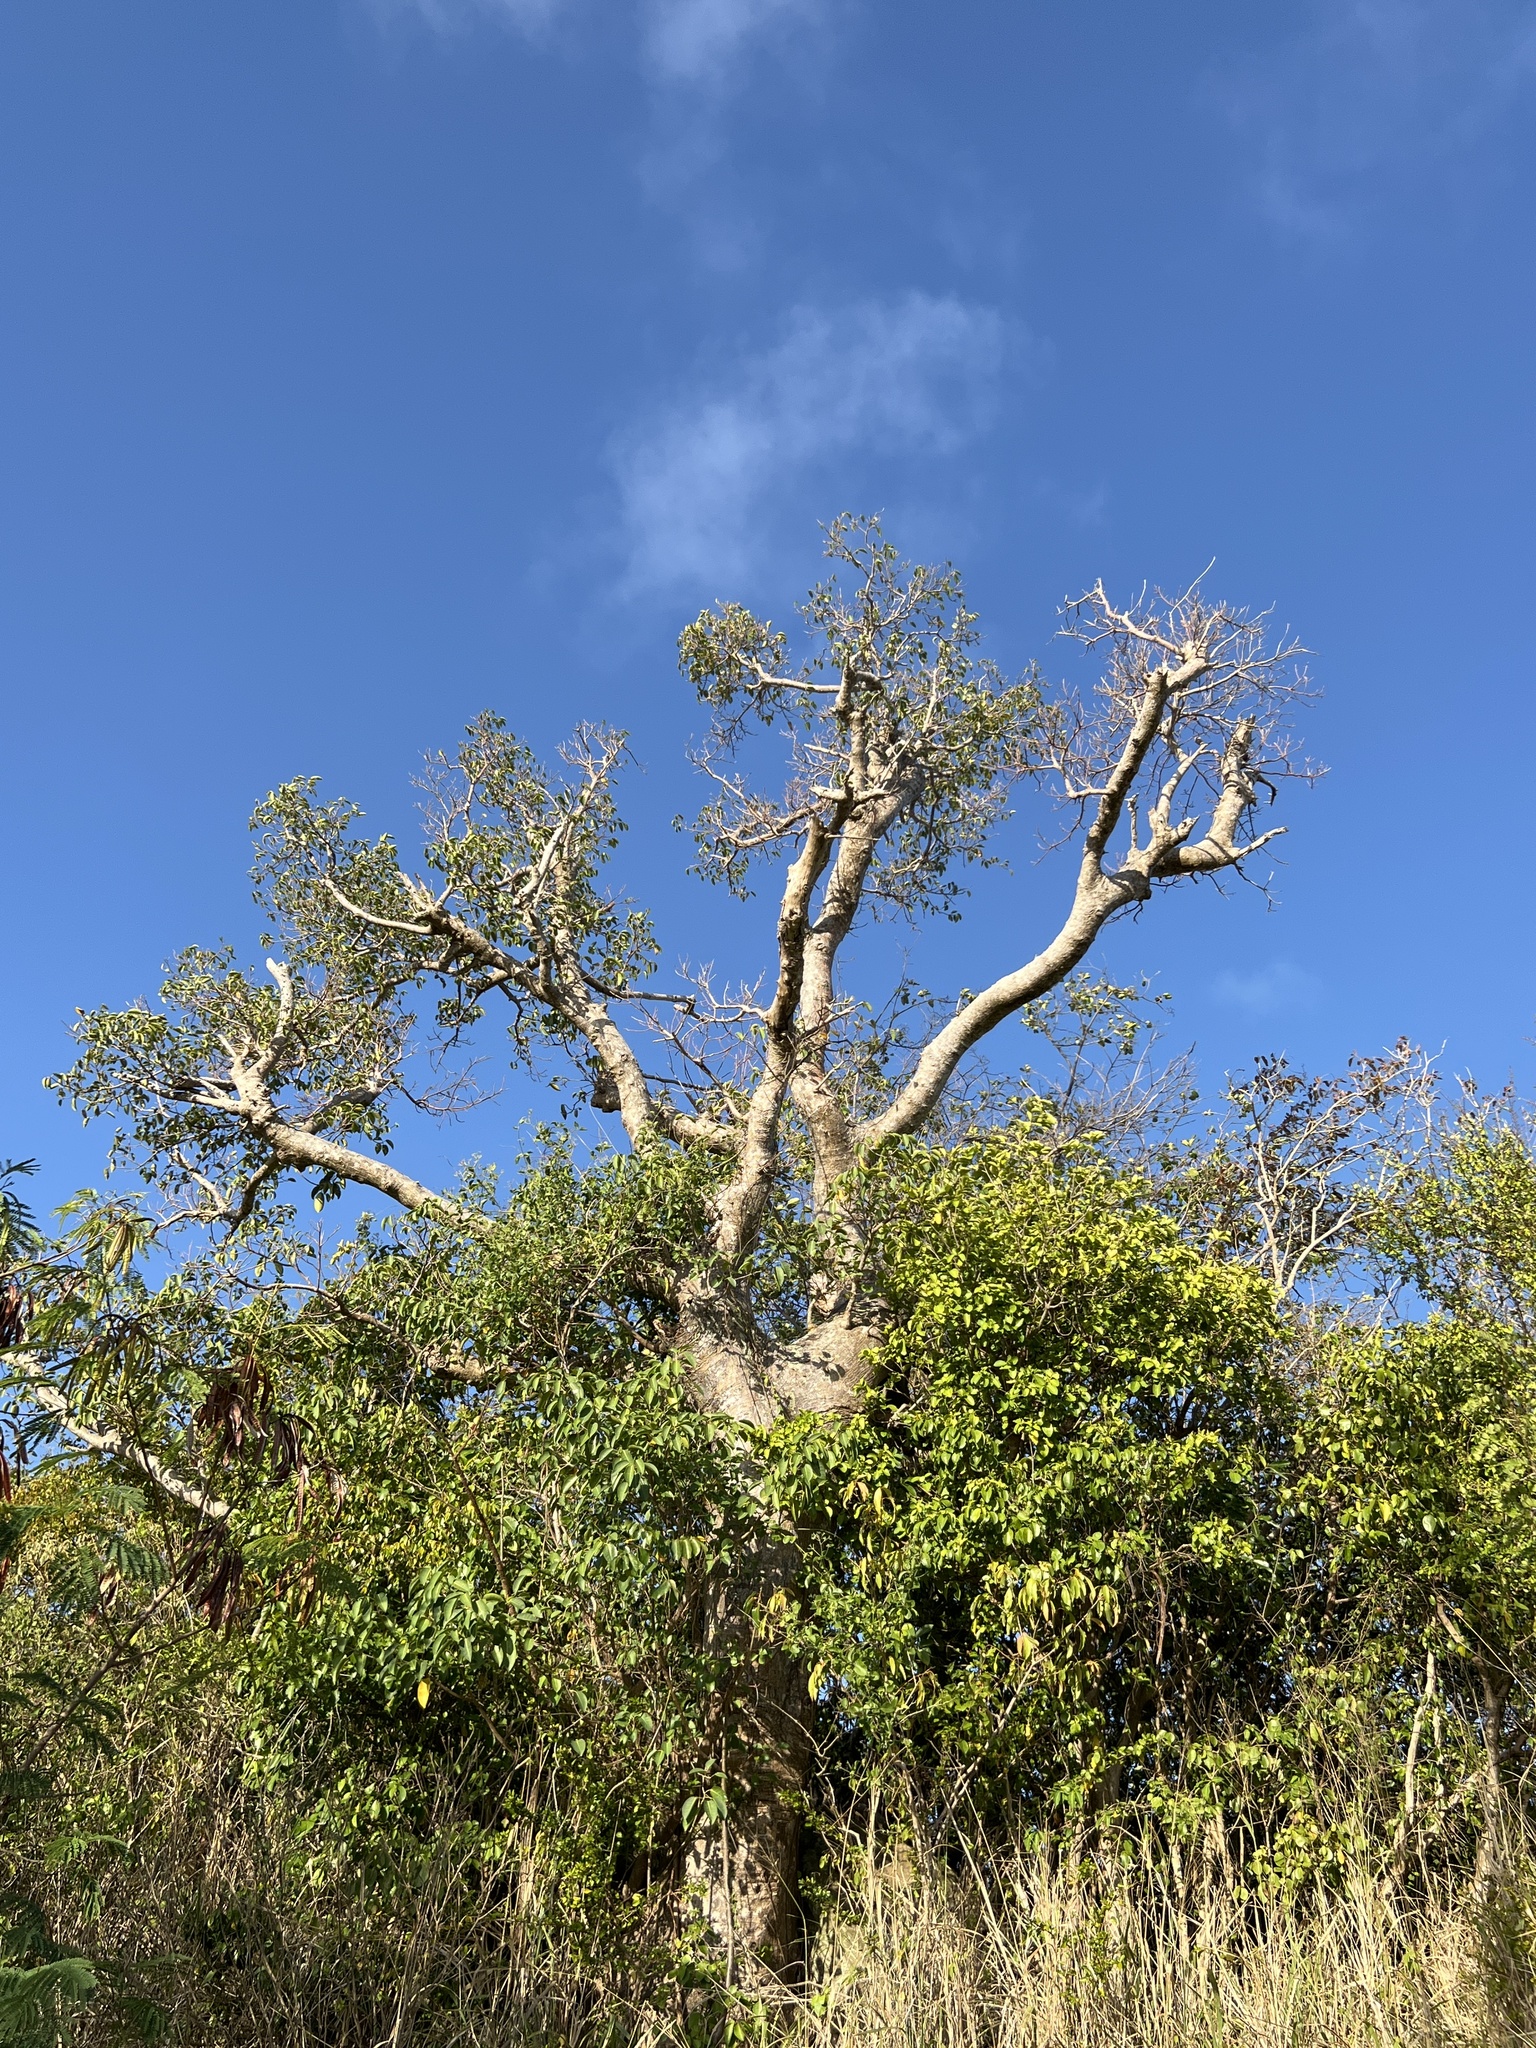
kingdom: Plantae
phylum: Tracheophyta
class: Magnoliopsida
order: Malpighiales
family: Euphorbiaceae
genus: Hippomane
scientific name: Hippomane mancinella
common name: Manchineel
